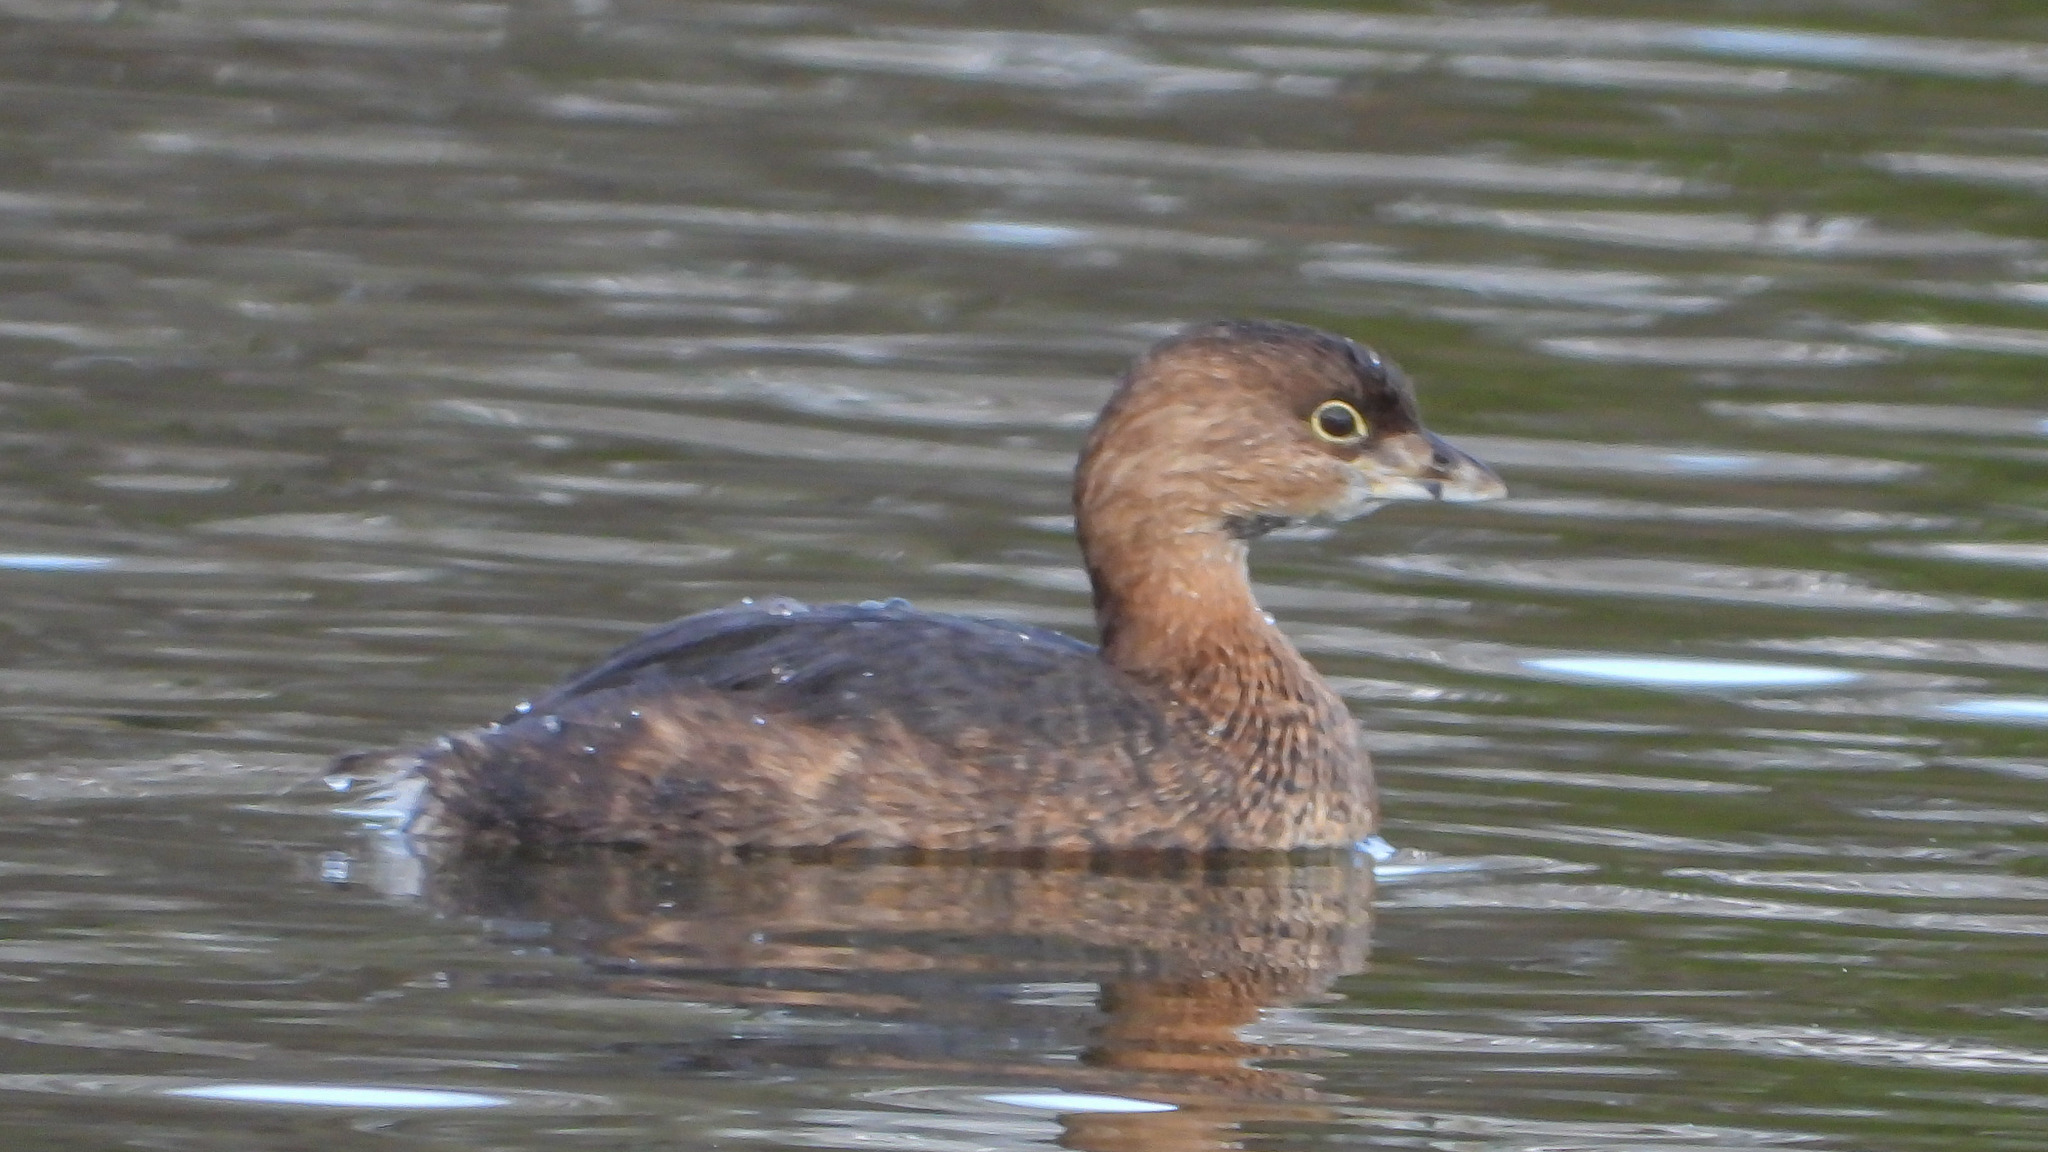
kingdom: Animalia
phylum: Chordata
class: Aves
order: Podicipediformes
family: Podicipedidae
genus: Podilymbus
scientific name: Podilymbus podiceps
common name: Pied-billed grebe
